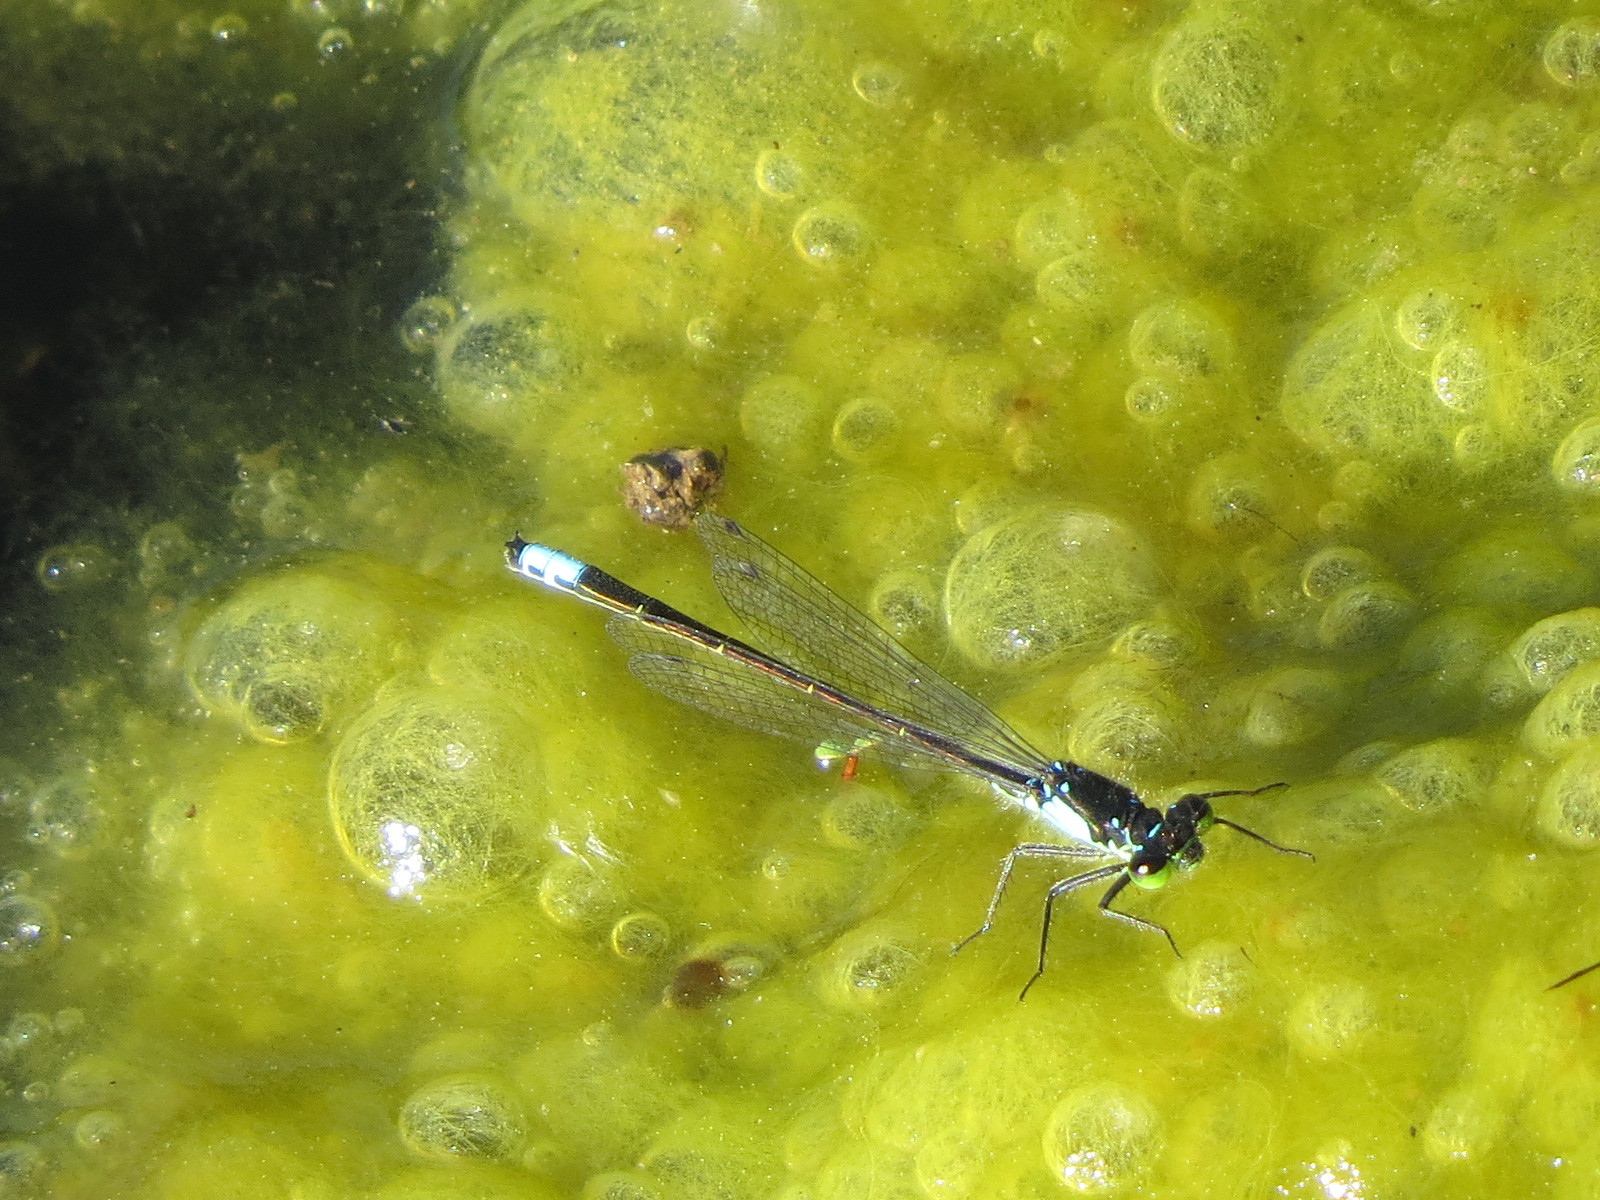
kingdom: Animalia
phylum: Arthropoda
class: Insecta
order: Odonata
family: Coenagrionidae
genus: Ischnura
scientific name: Ischnura cervula
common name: Pacific forktail
